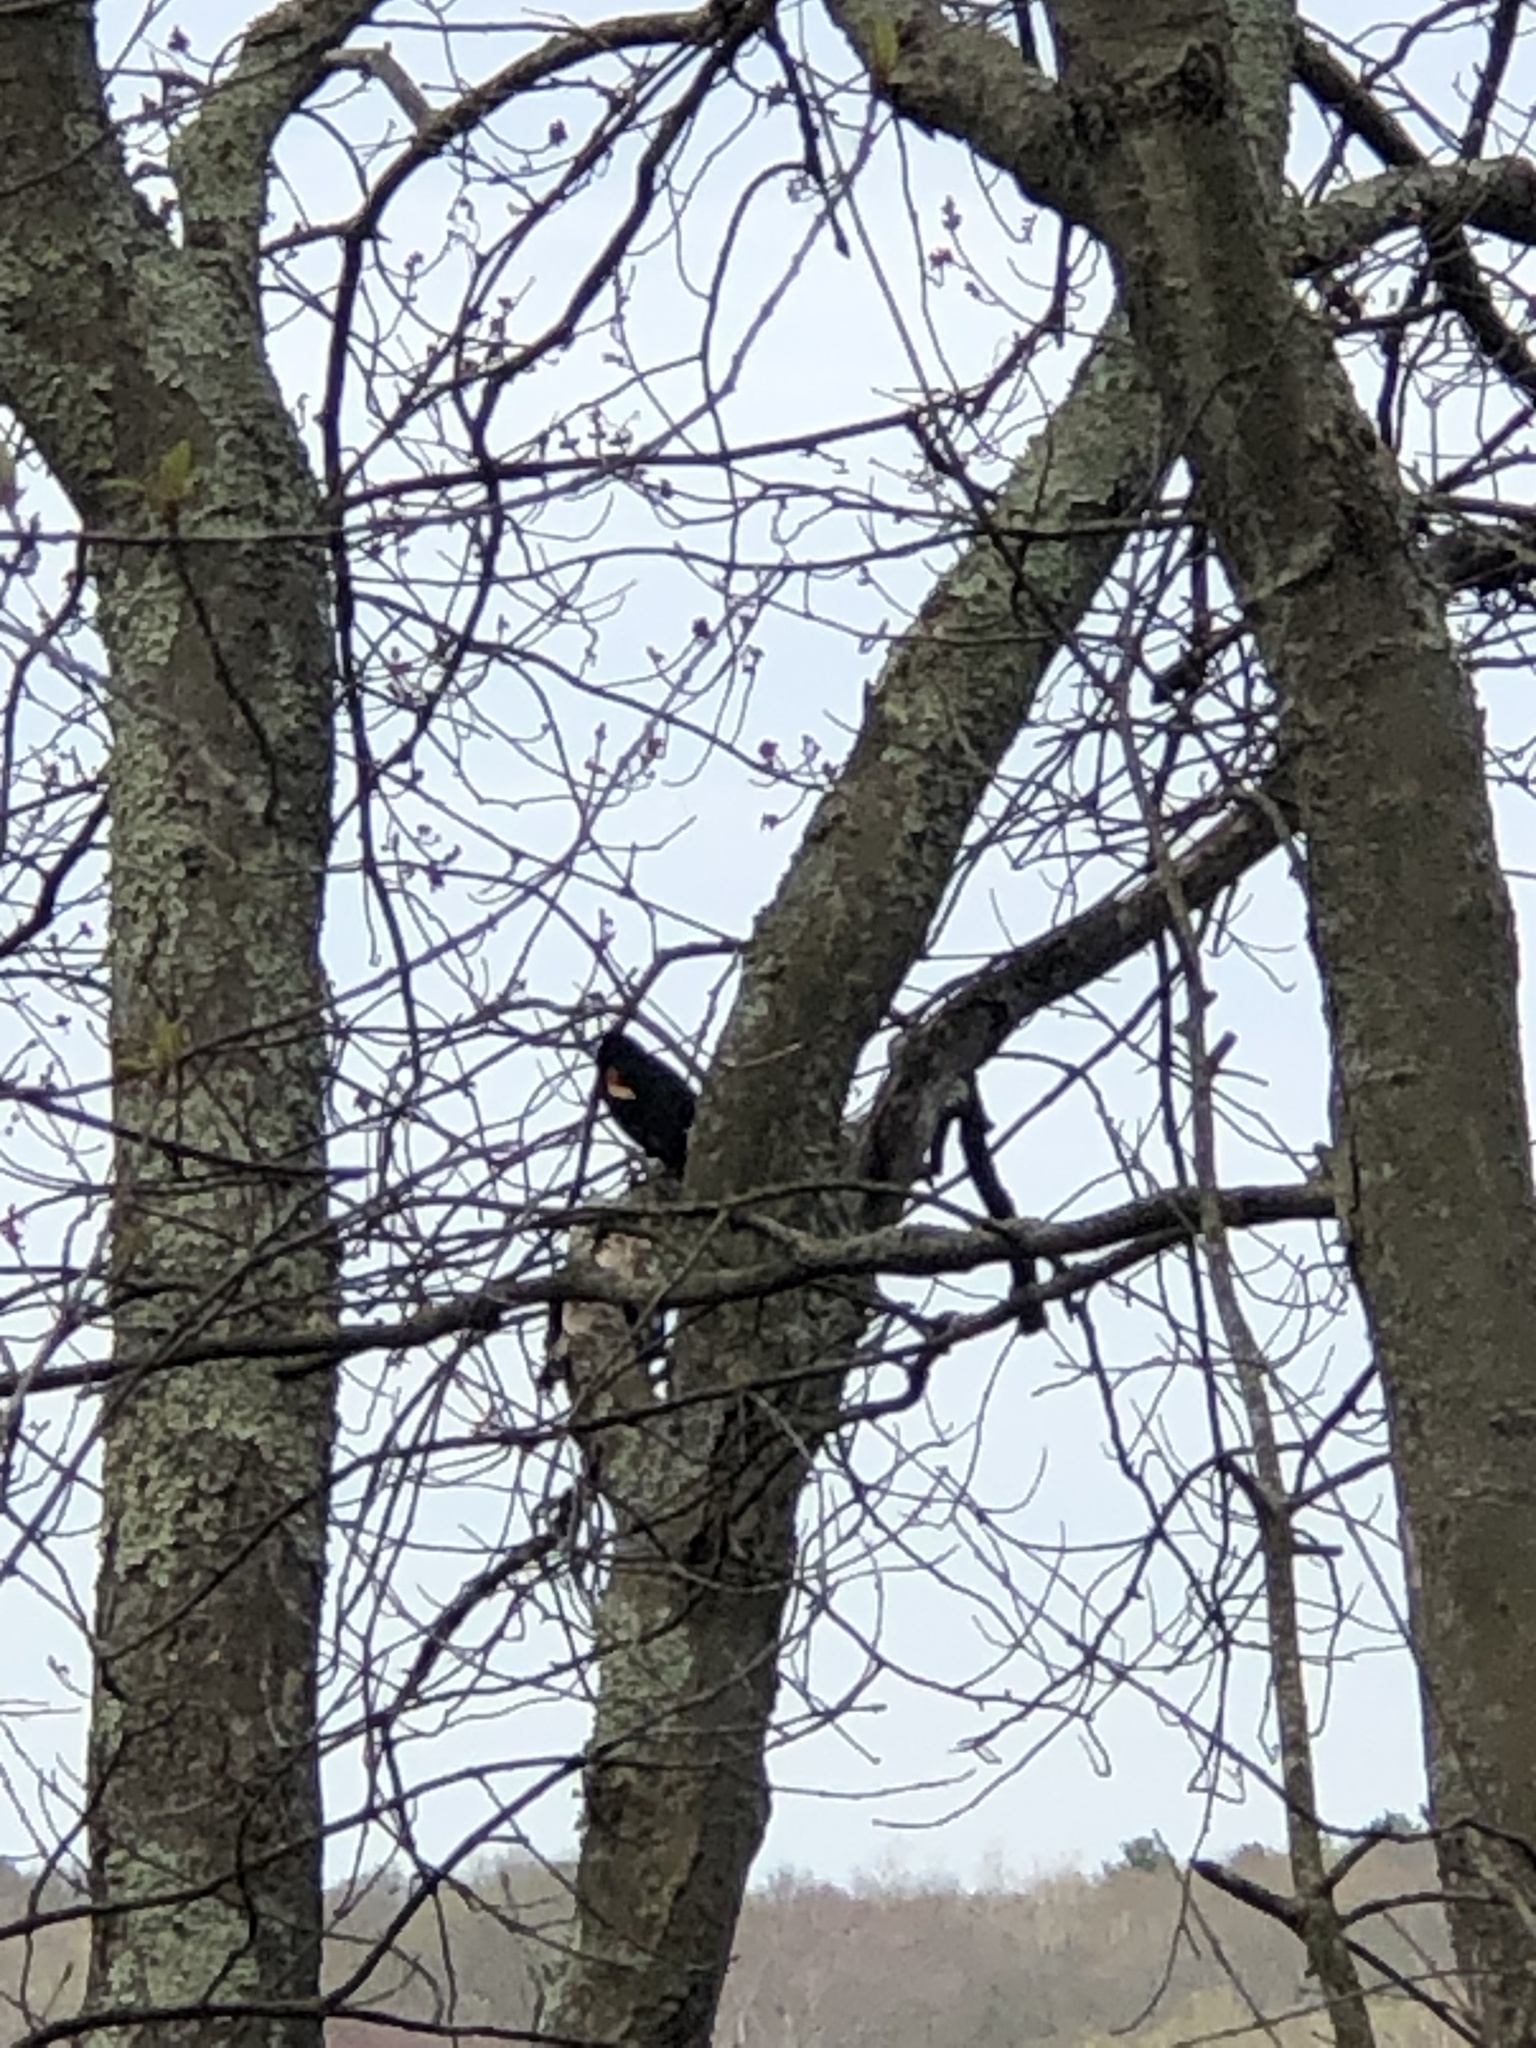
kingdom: Animalia
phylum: Chordata
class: Aves
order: Passeriformes
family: Icteridae
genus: Agelaius
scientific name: Agelaius phoeniceus
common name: Red-winged blackbird
